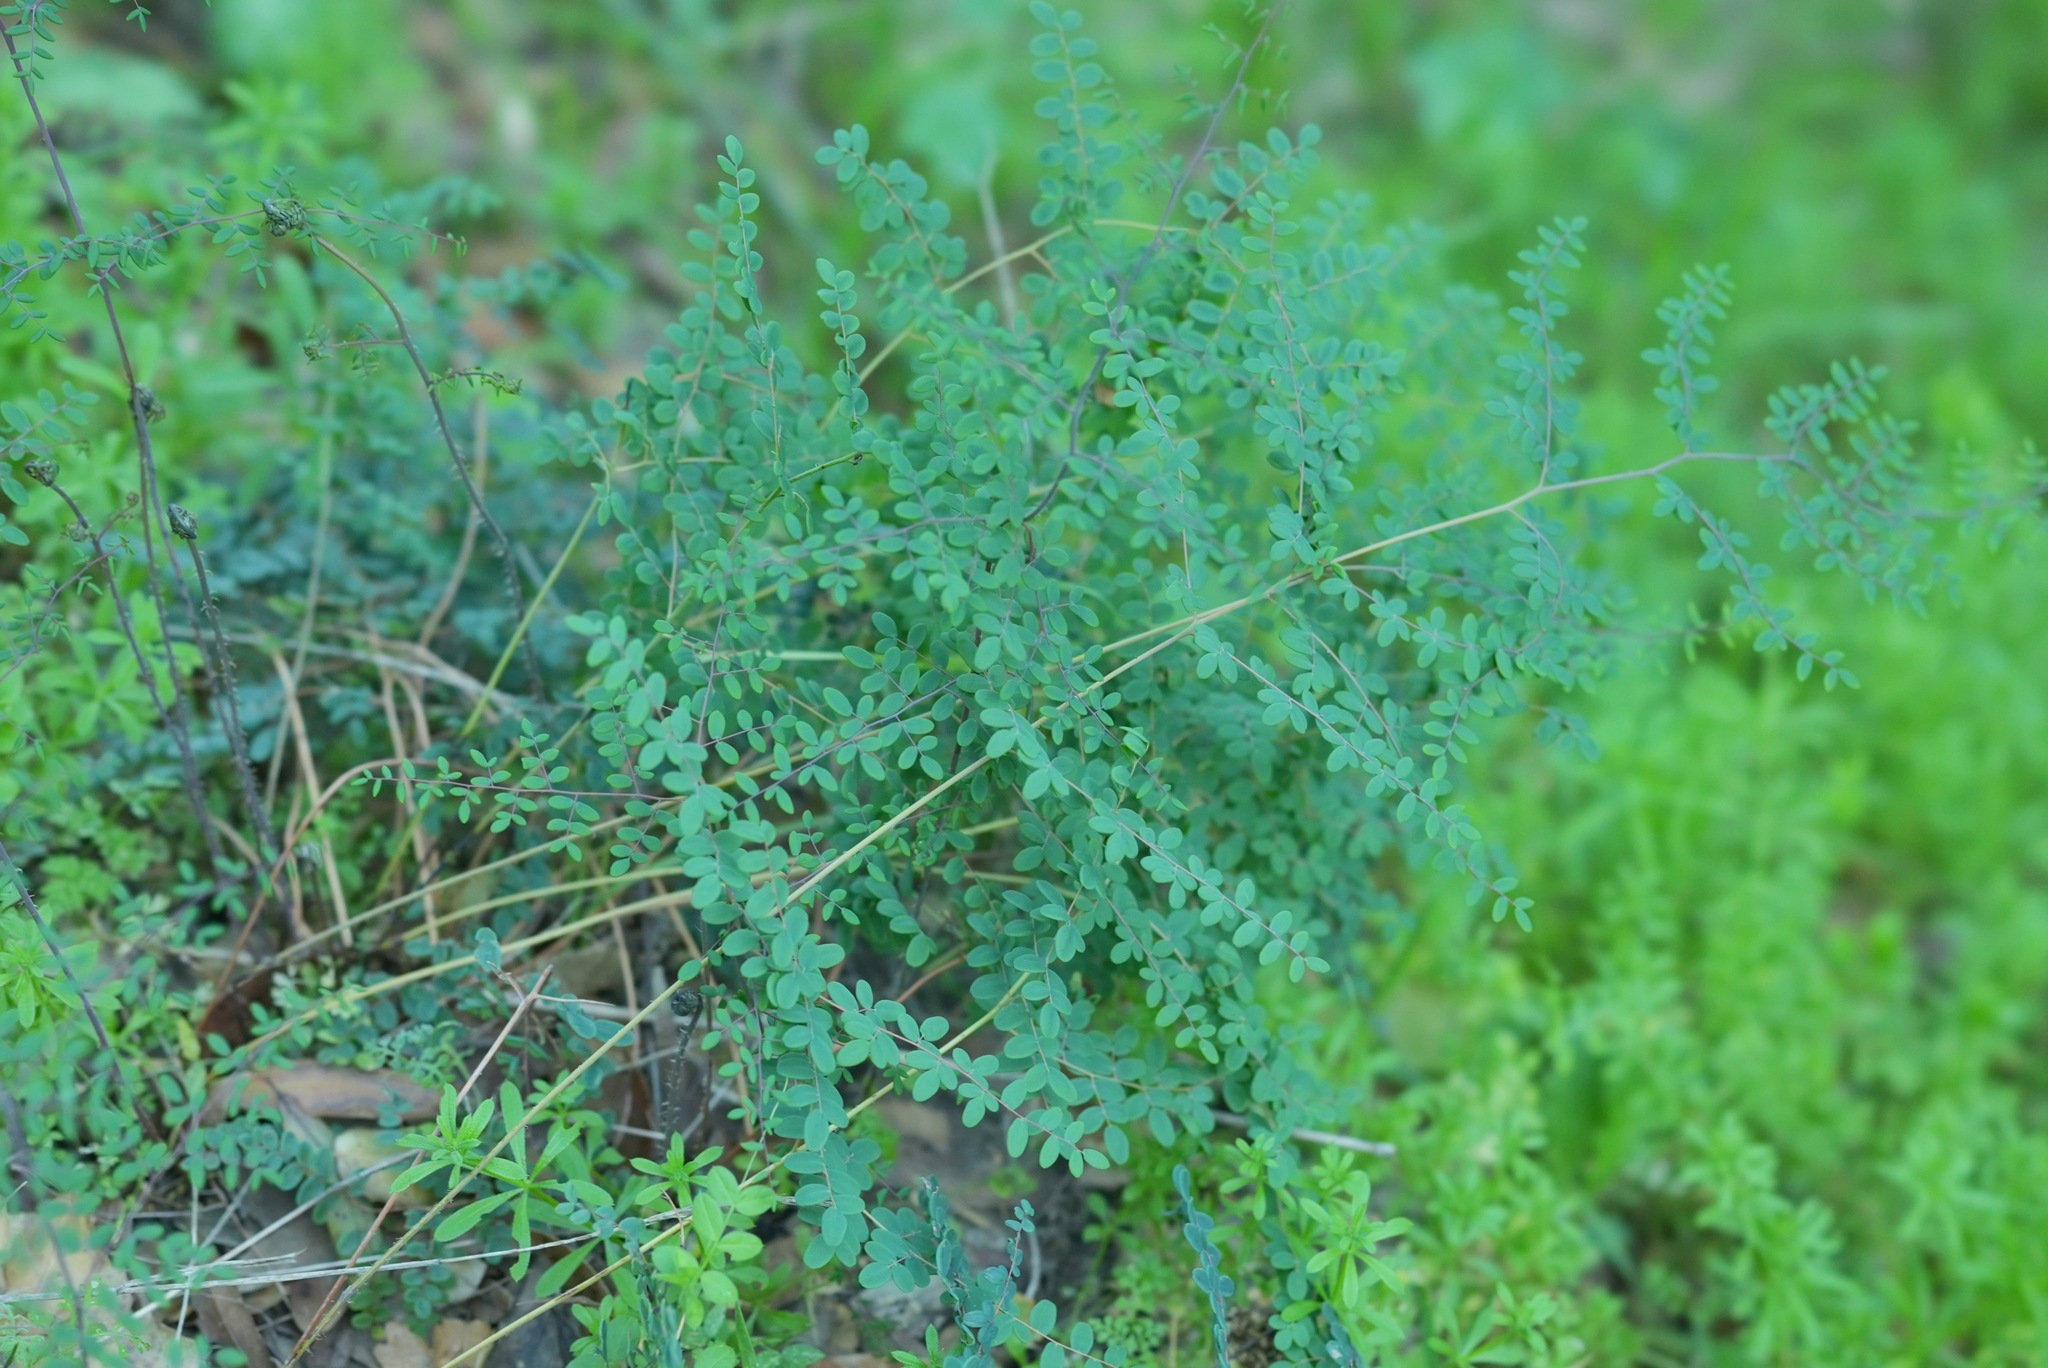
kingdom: Plantae
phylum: Tracheophyta
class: Polypodiopsida
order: Polypodiales
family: Pteridaceae
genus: Pellaea
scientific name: Pellaea andromedifolia
